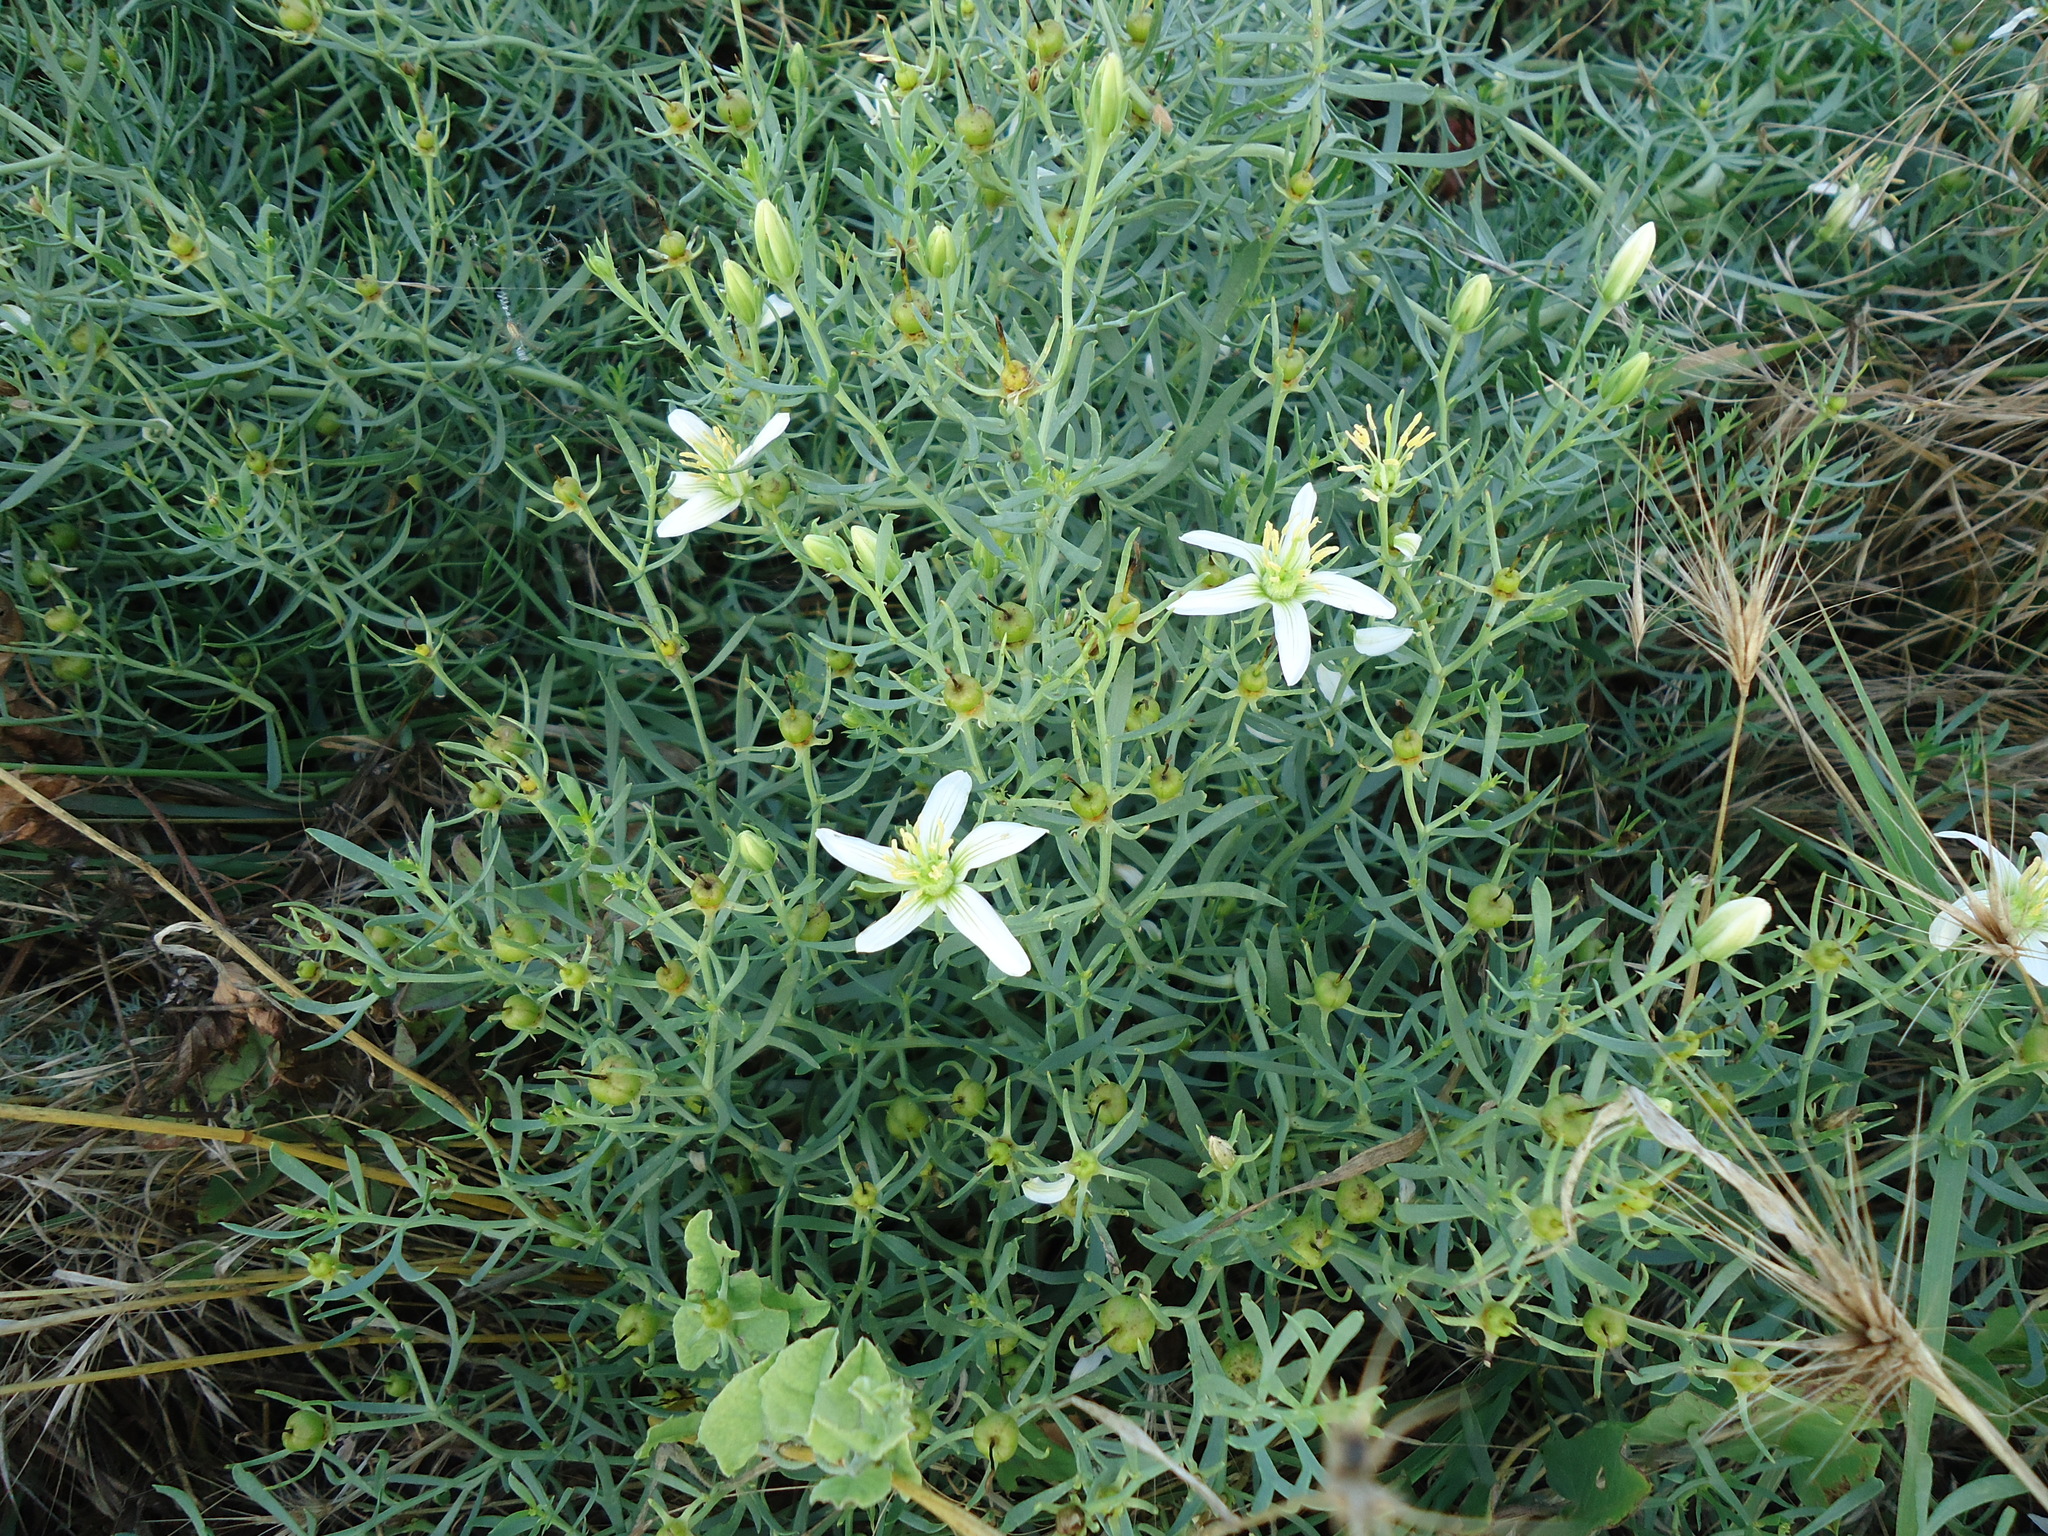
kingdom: Plantae
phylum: Tracheophyta
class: Magnoliopsida
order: Sapindales
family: Tetradiclidaceae
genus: Peganum
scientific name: Peganum harmala
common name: Harmal peganum
